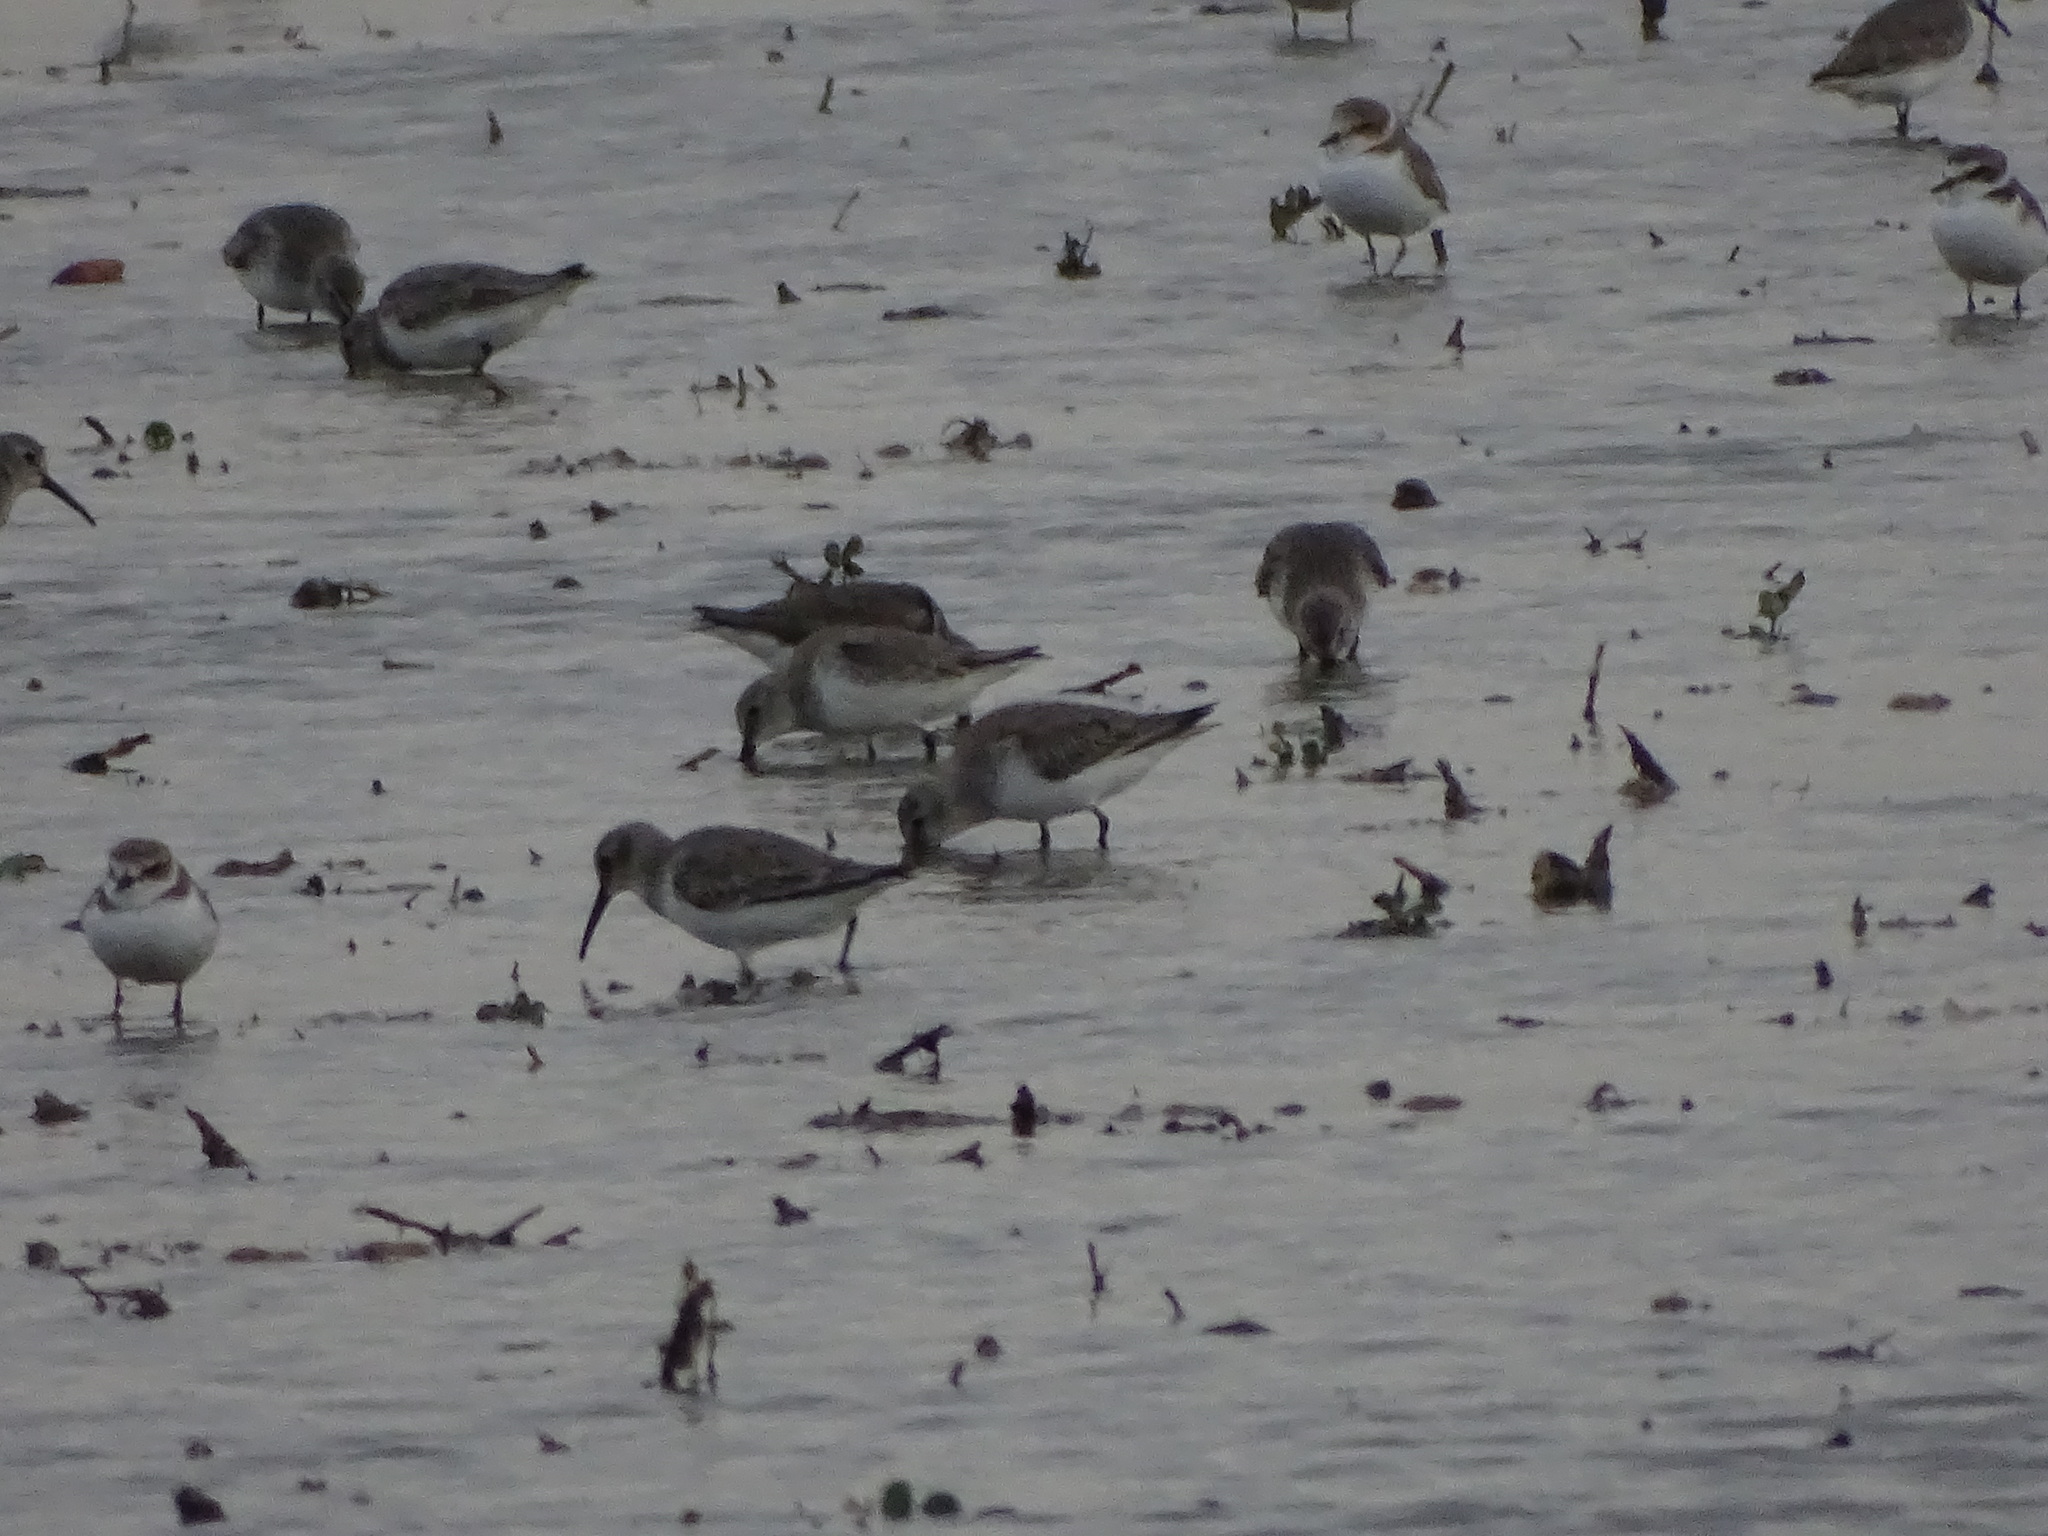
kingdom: Animalia
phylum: Chordata
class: Aves
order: Charadriiformes
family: Scolopacidae
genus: Calidris
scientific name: Calidris alpina
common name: Dunlin
